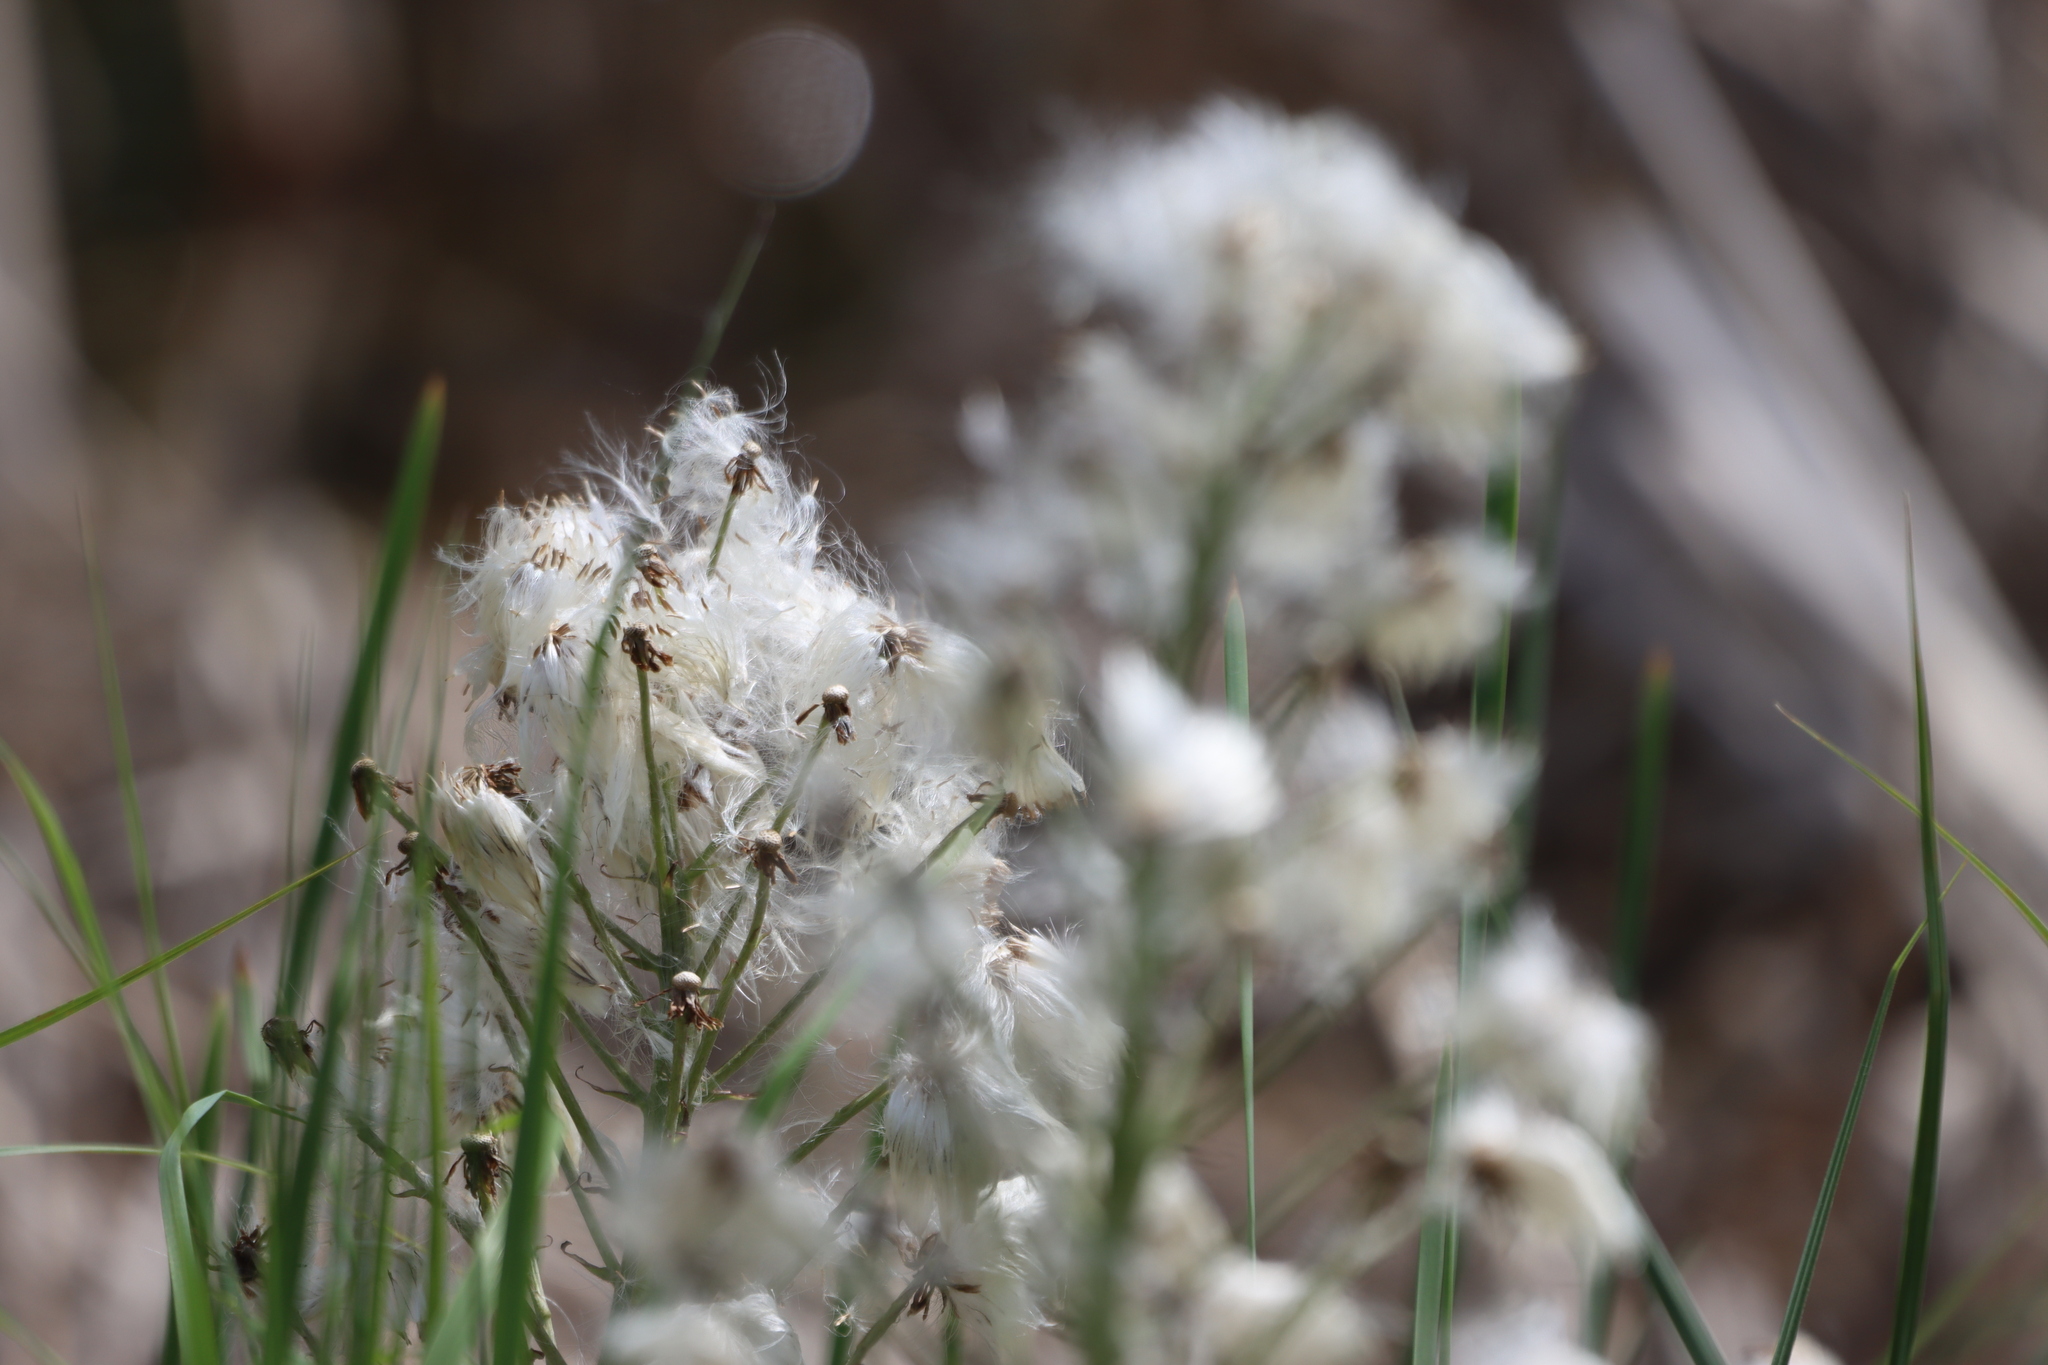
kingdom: Plantae
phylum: Tracheophyta
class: Magnoliopsida
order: Asterales
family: Asteraceae
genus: Petasites
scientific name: Petasites frigidus
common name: Arctic butterbur
